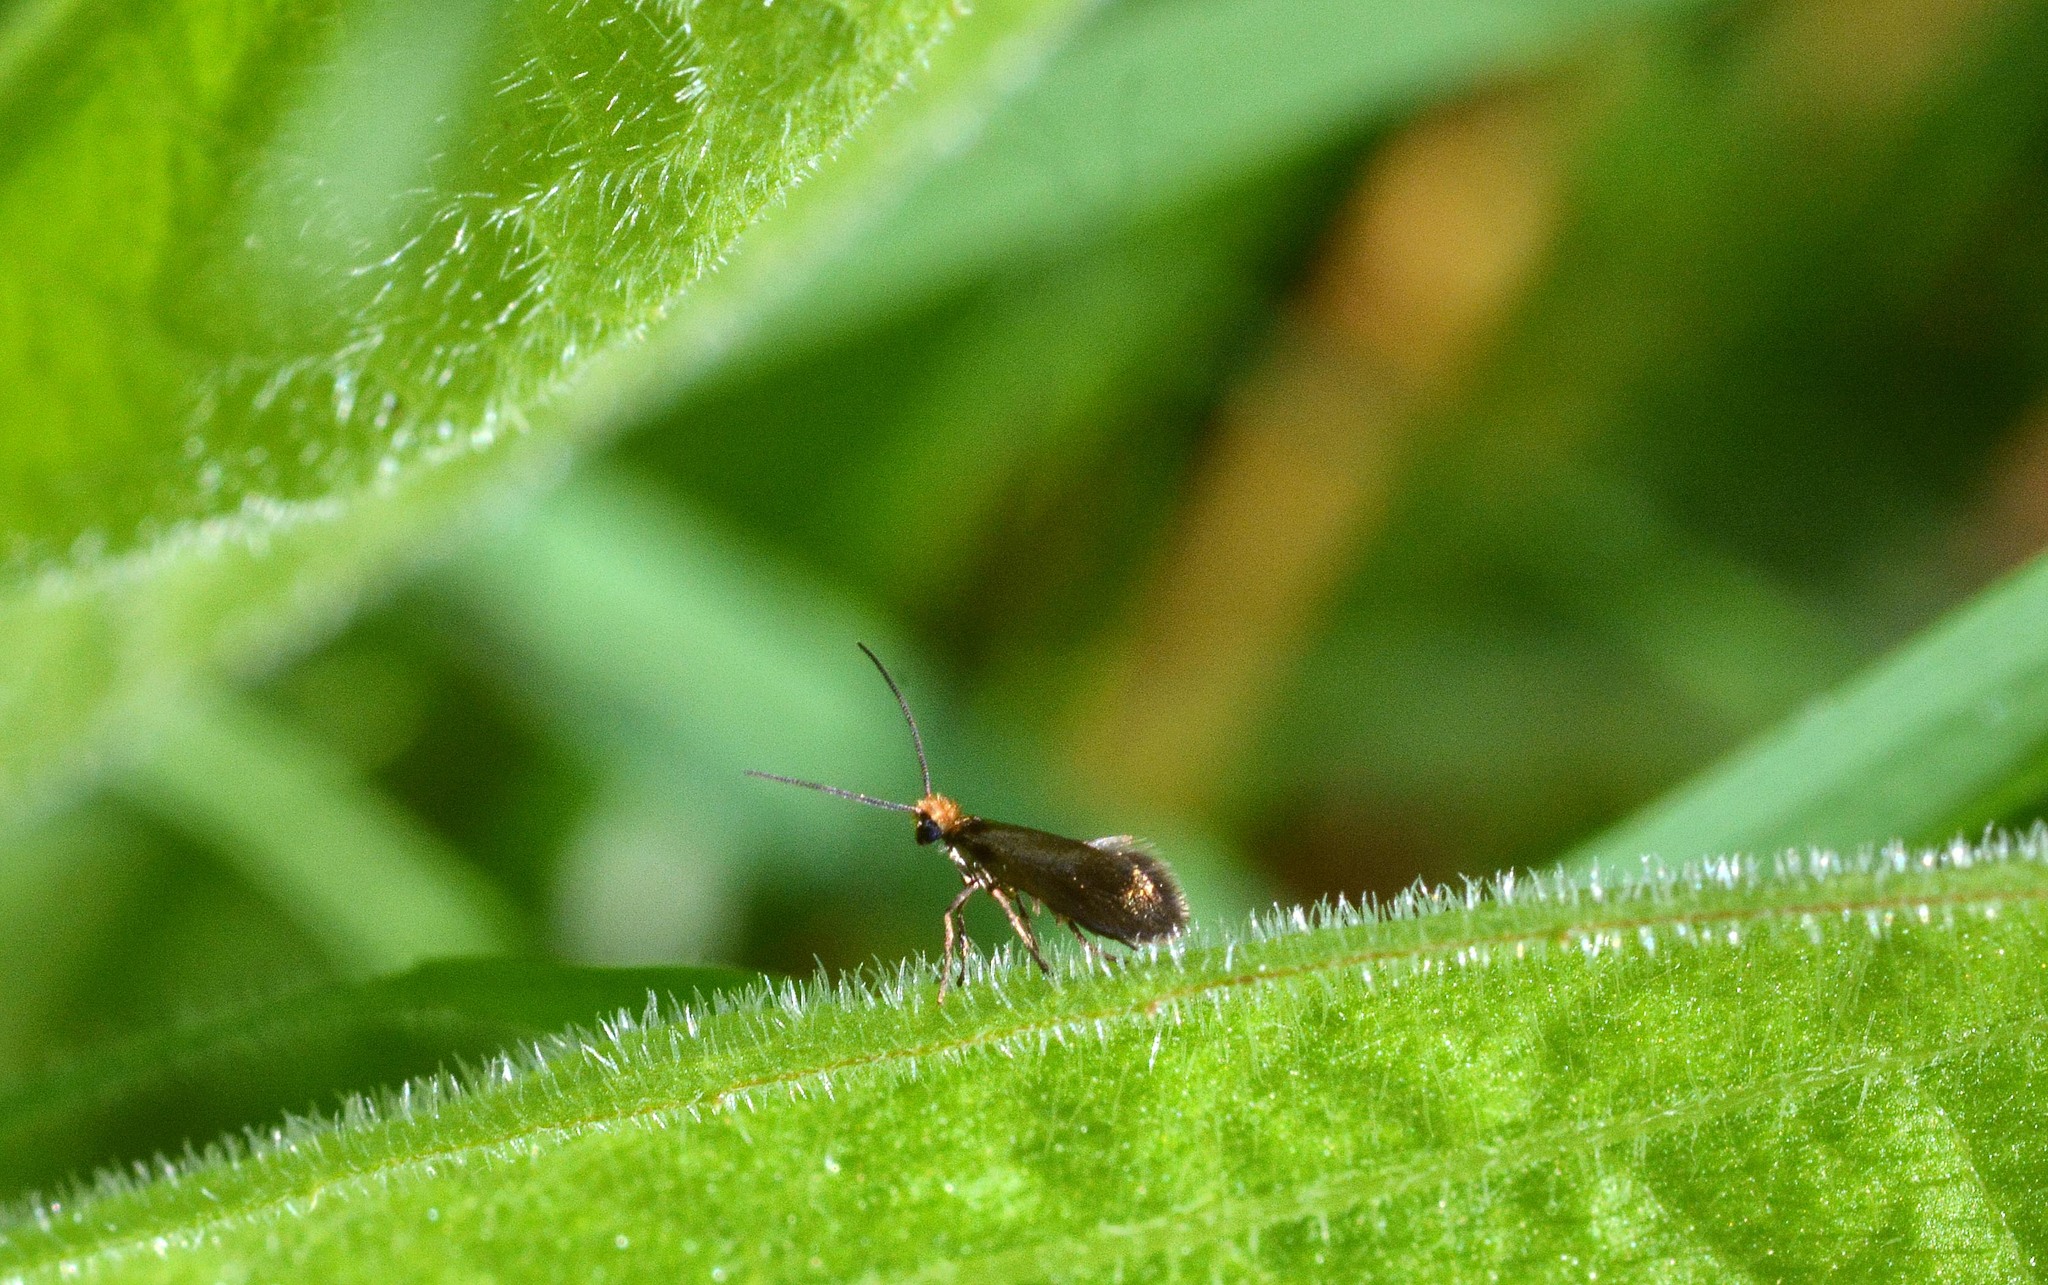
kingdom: Animalia
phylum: Arthropoda
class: Insecta
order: Lepidoptera
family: Micropterigidae
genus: Micropterix
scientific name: Micropterix calthella
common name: Plain gold
